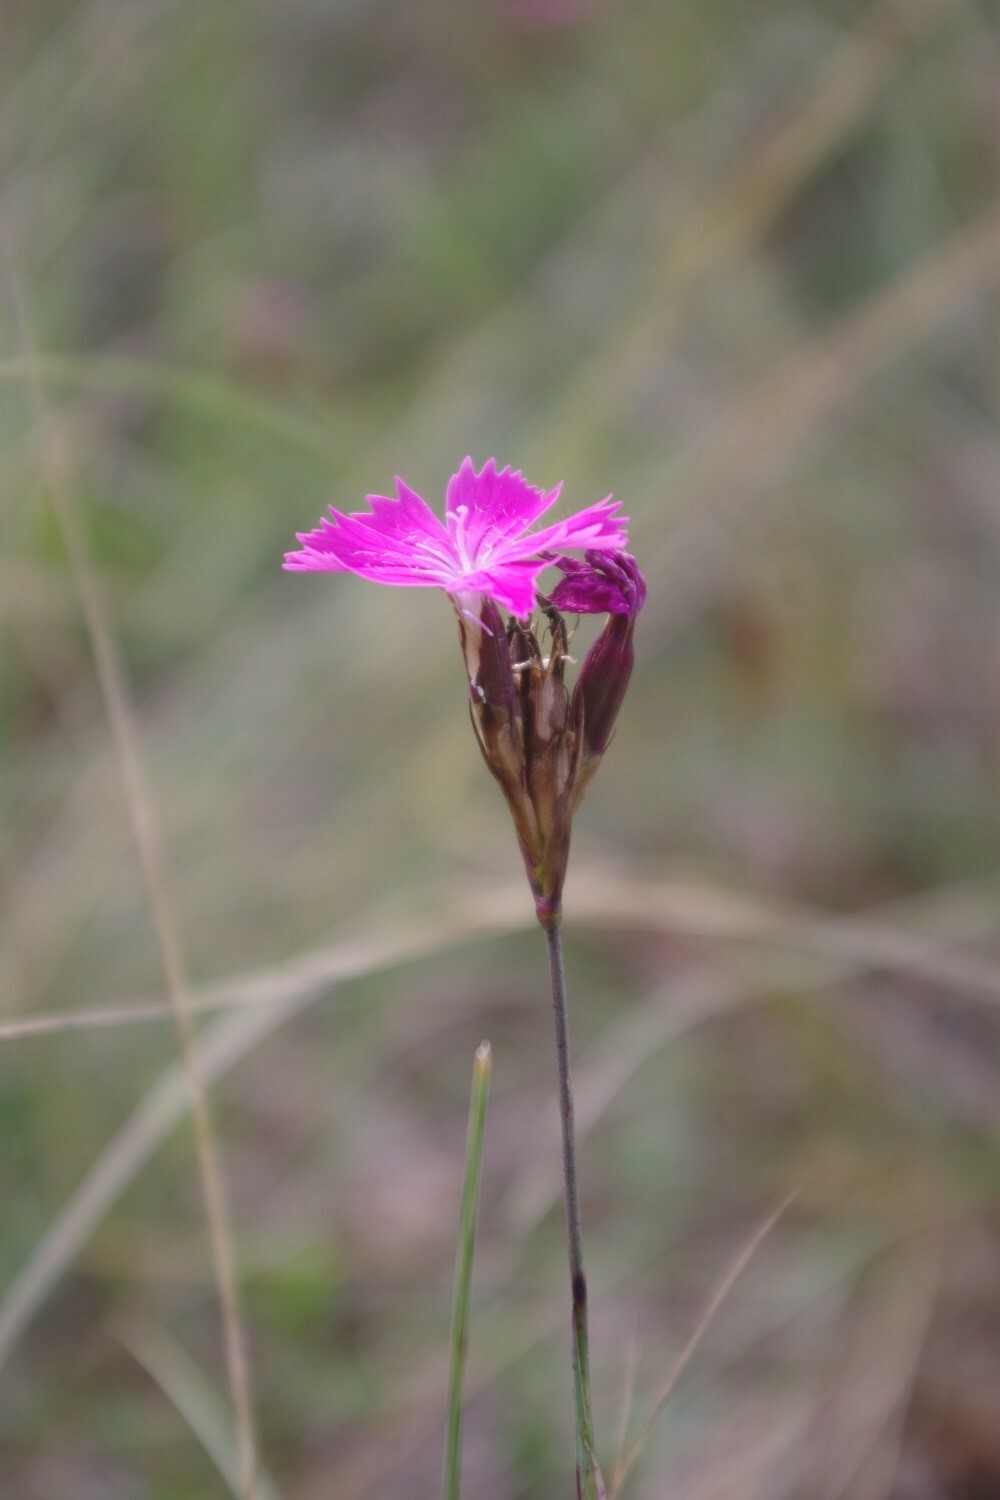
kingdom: Plantae
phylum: Tracheophyta
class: Magnoliopsida
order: Caryophyllales
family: Caryophyllaceae
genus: Dianthus
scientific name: Dianthus carthusianorum
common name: Carthusian pink
